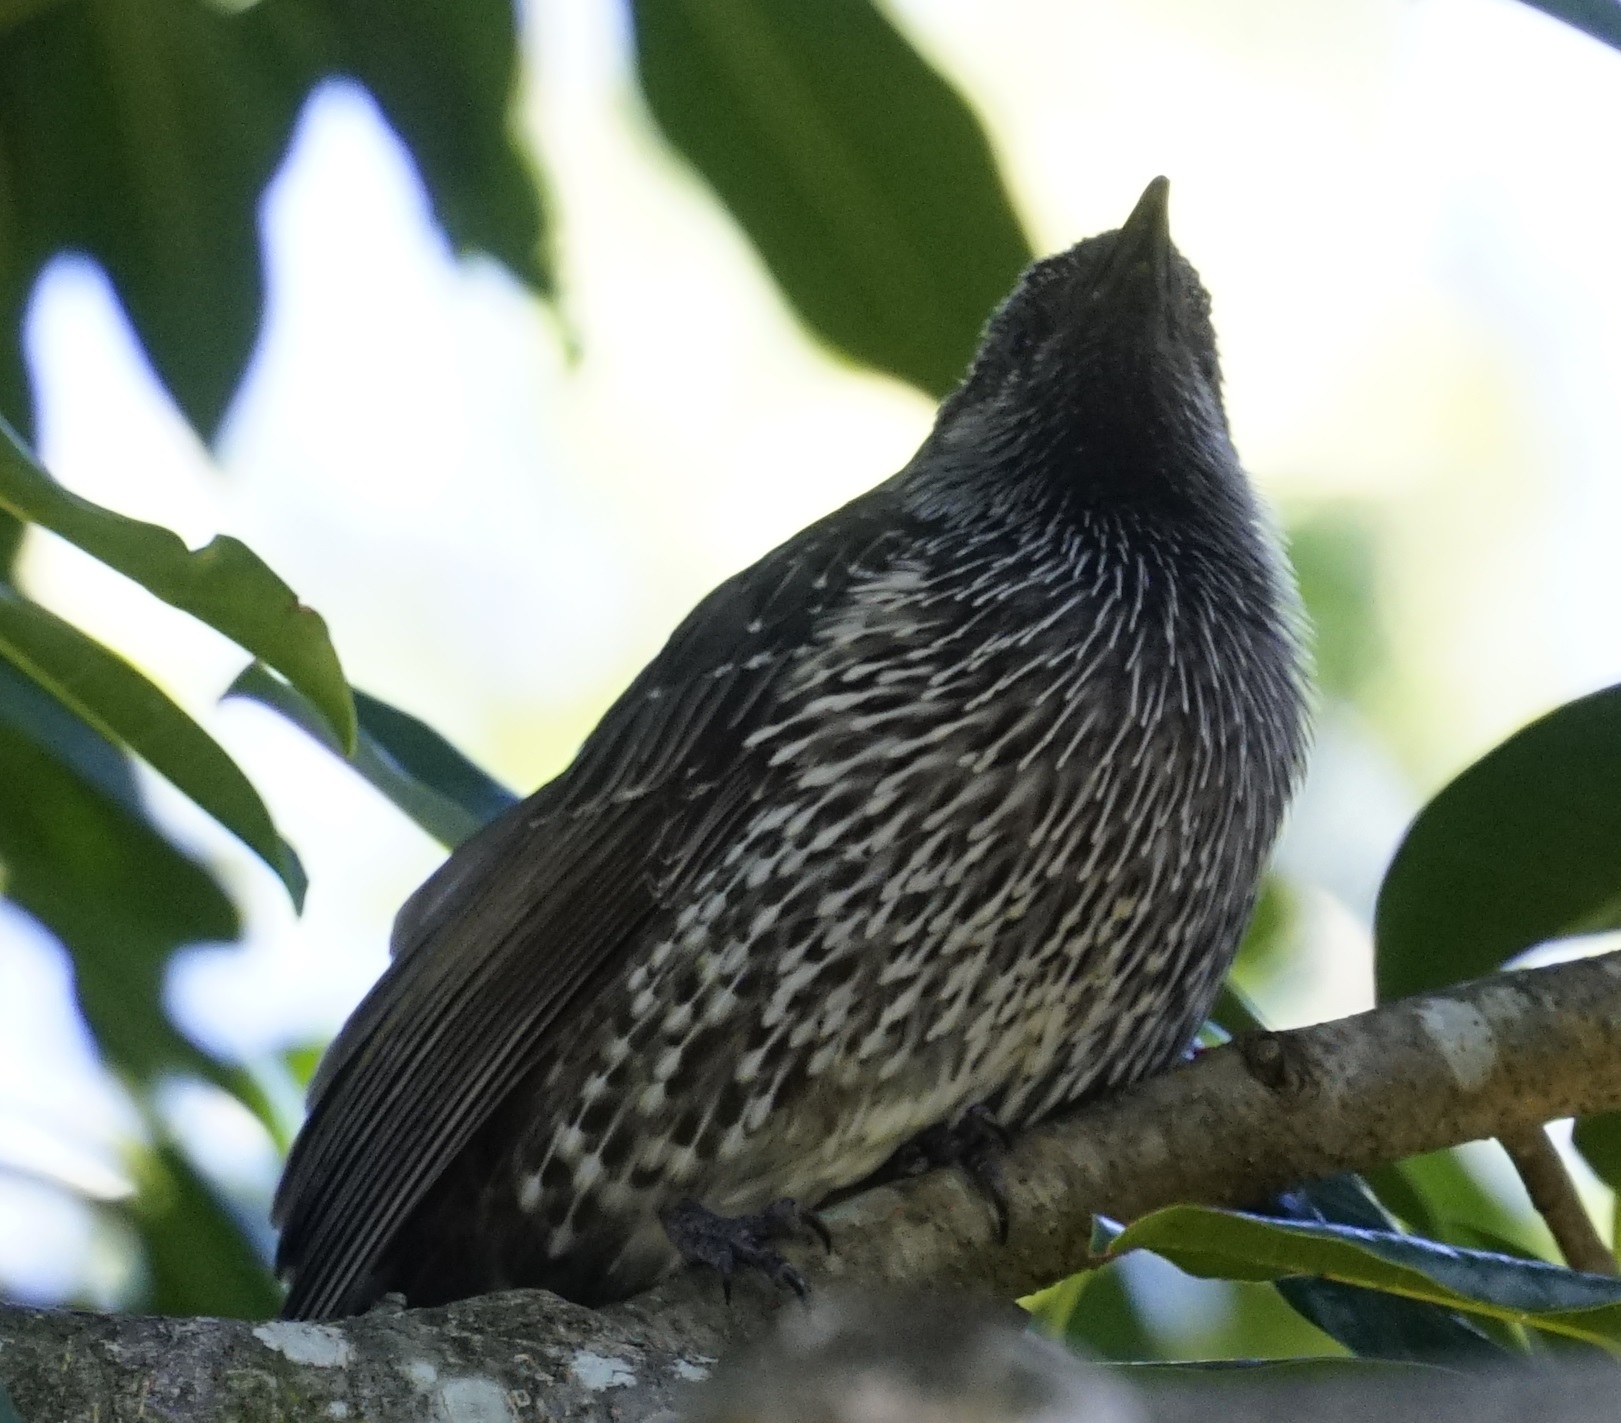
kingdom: Animalia
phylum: Chordata
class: Aves
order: Passeriformes
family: Meliphagidae
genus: Anthochaera
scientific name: Anthochaera chrysoptera
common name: Little wattlebird
